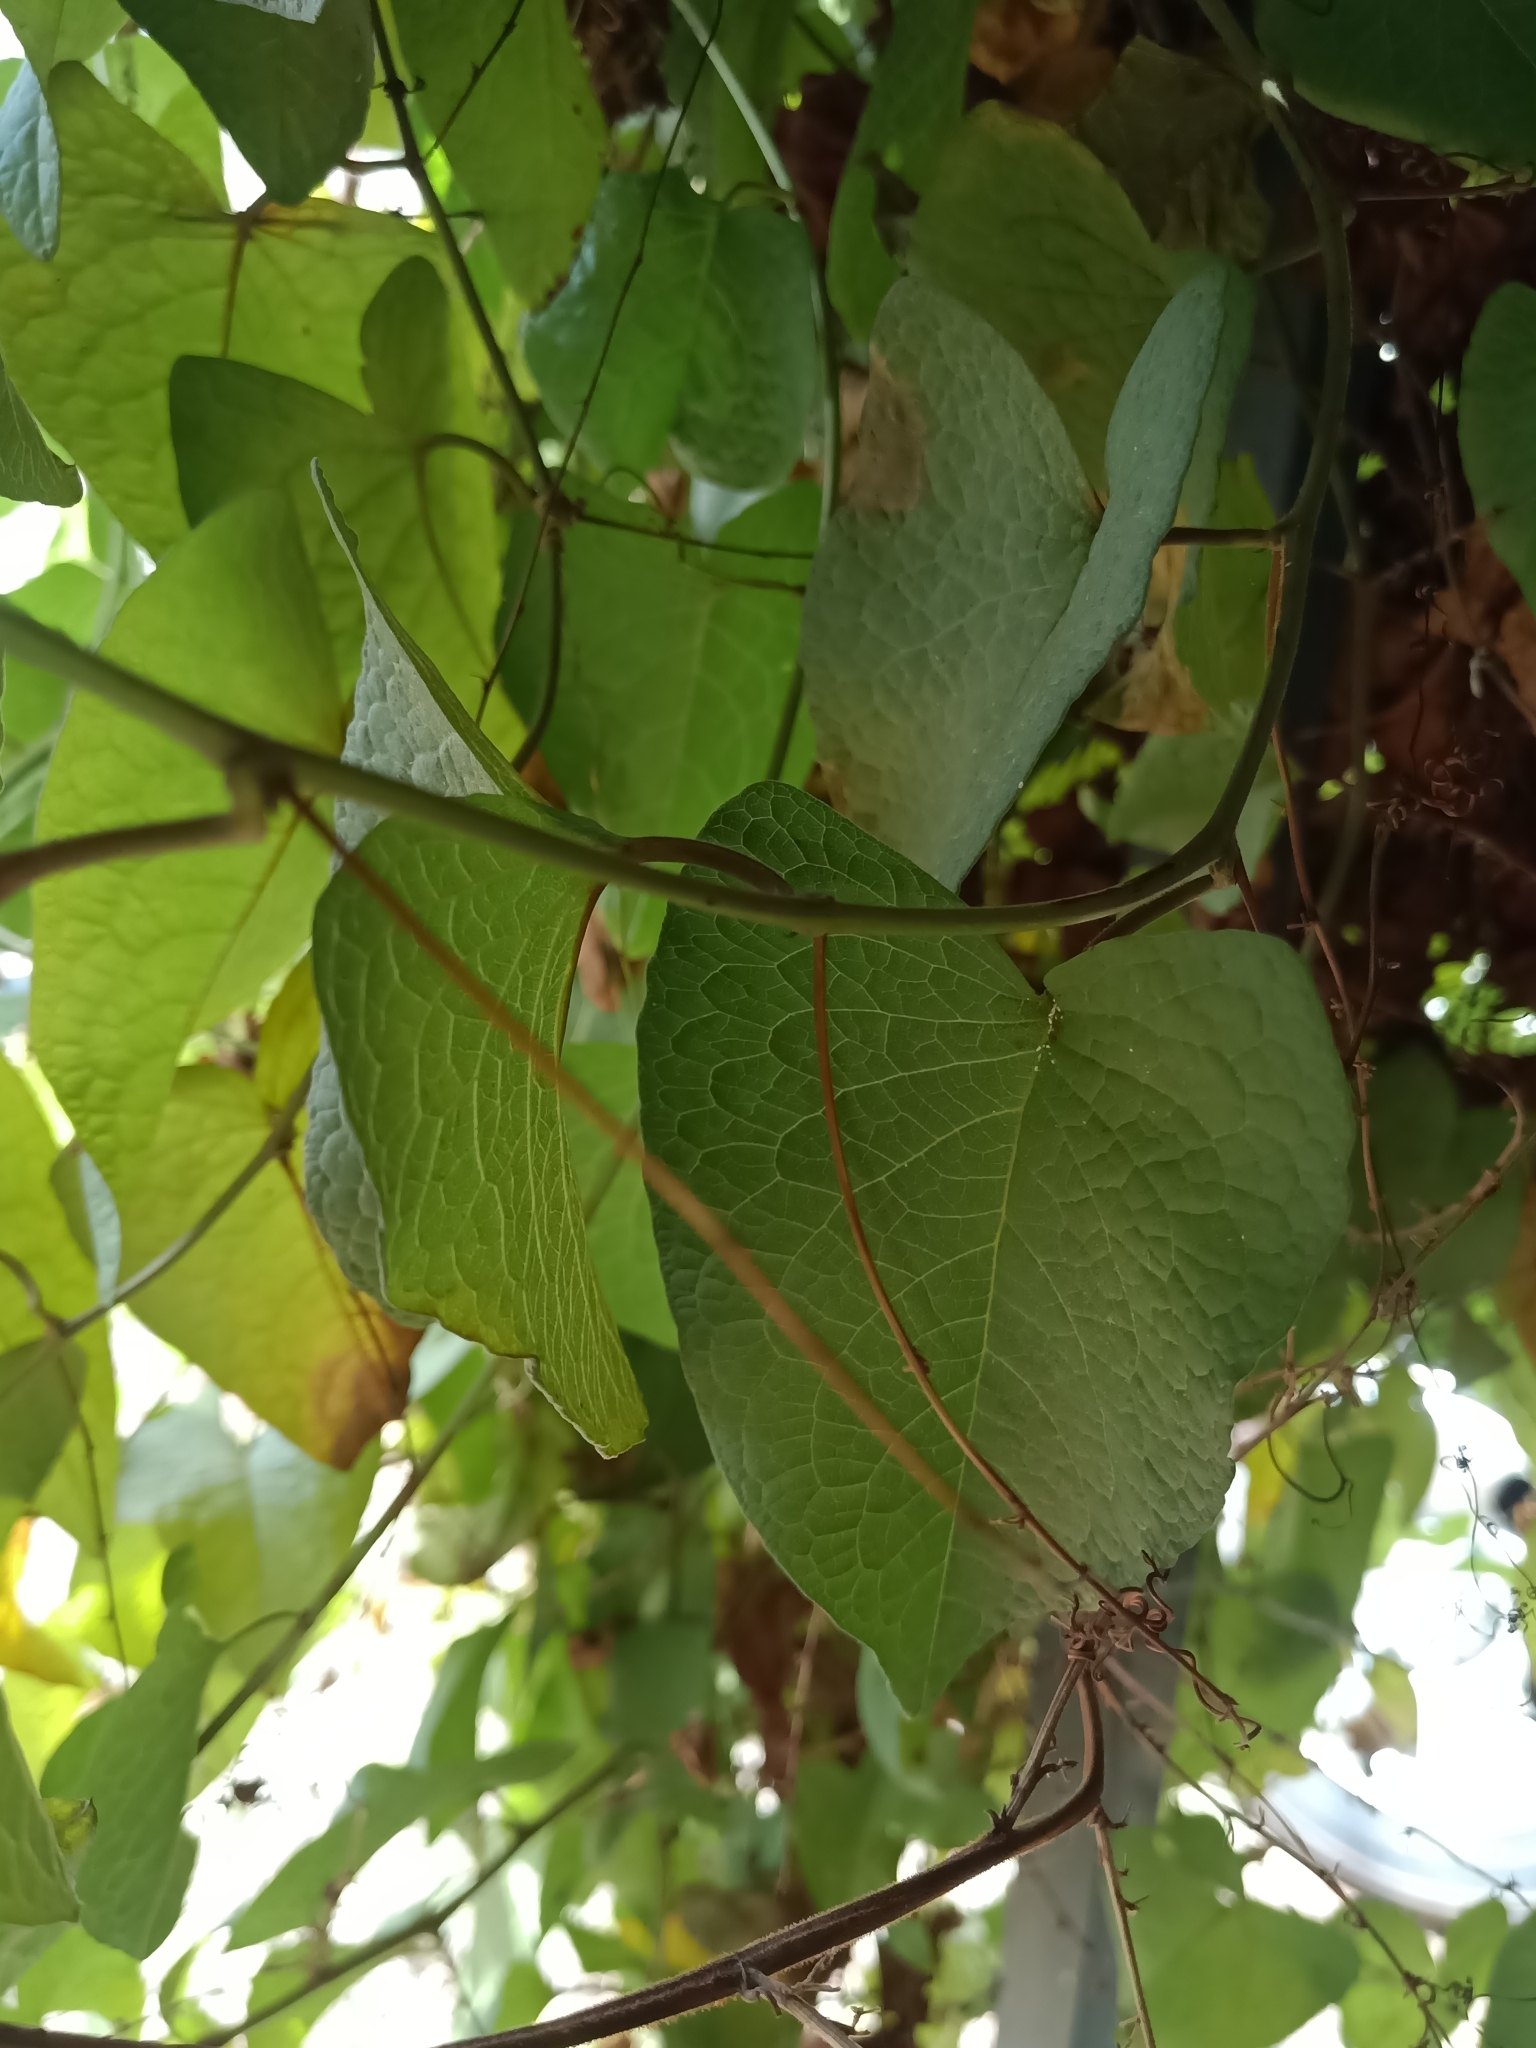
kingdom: Plantae
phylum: Tracheophyta
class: Magnoliopsida
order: Caryophyllales
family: Polygonaceae
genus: Antigonon
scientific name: Antigonon leptopus
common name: Coral vine
